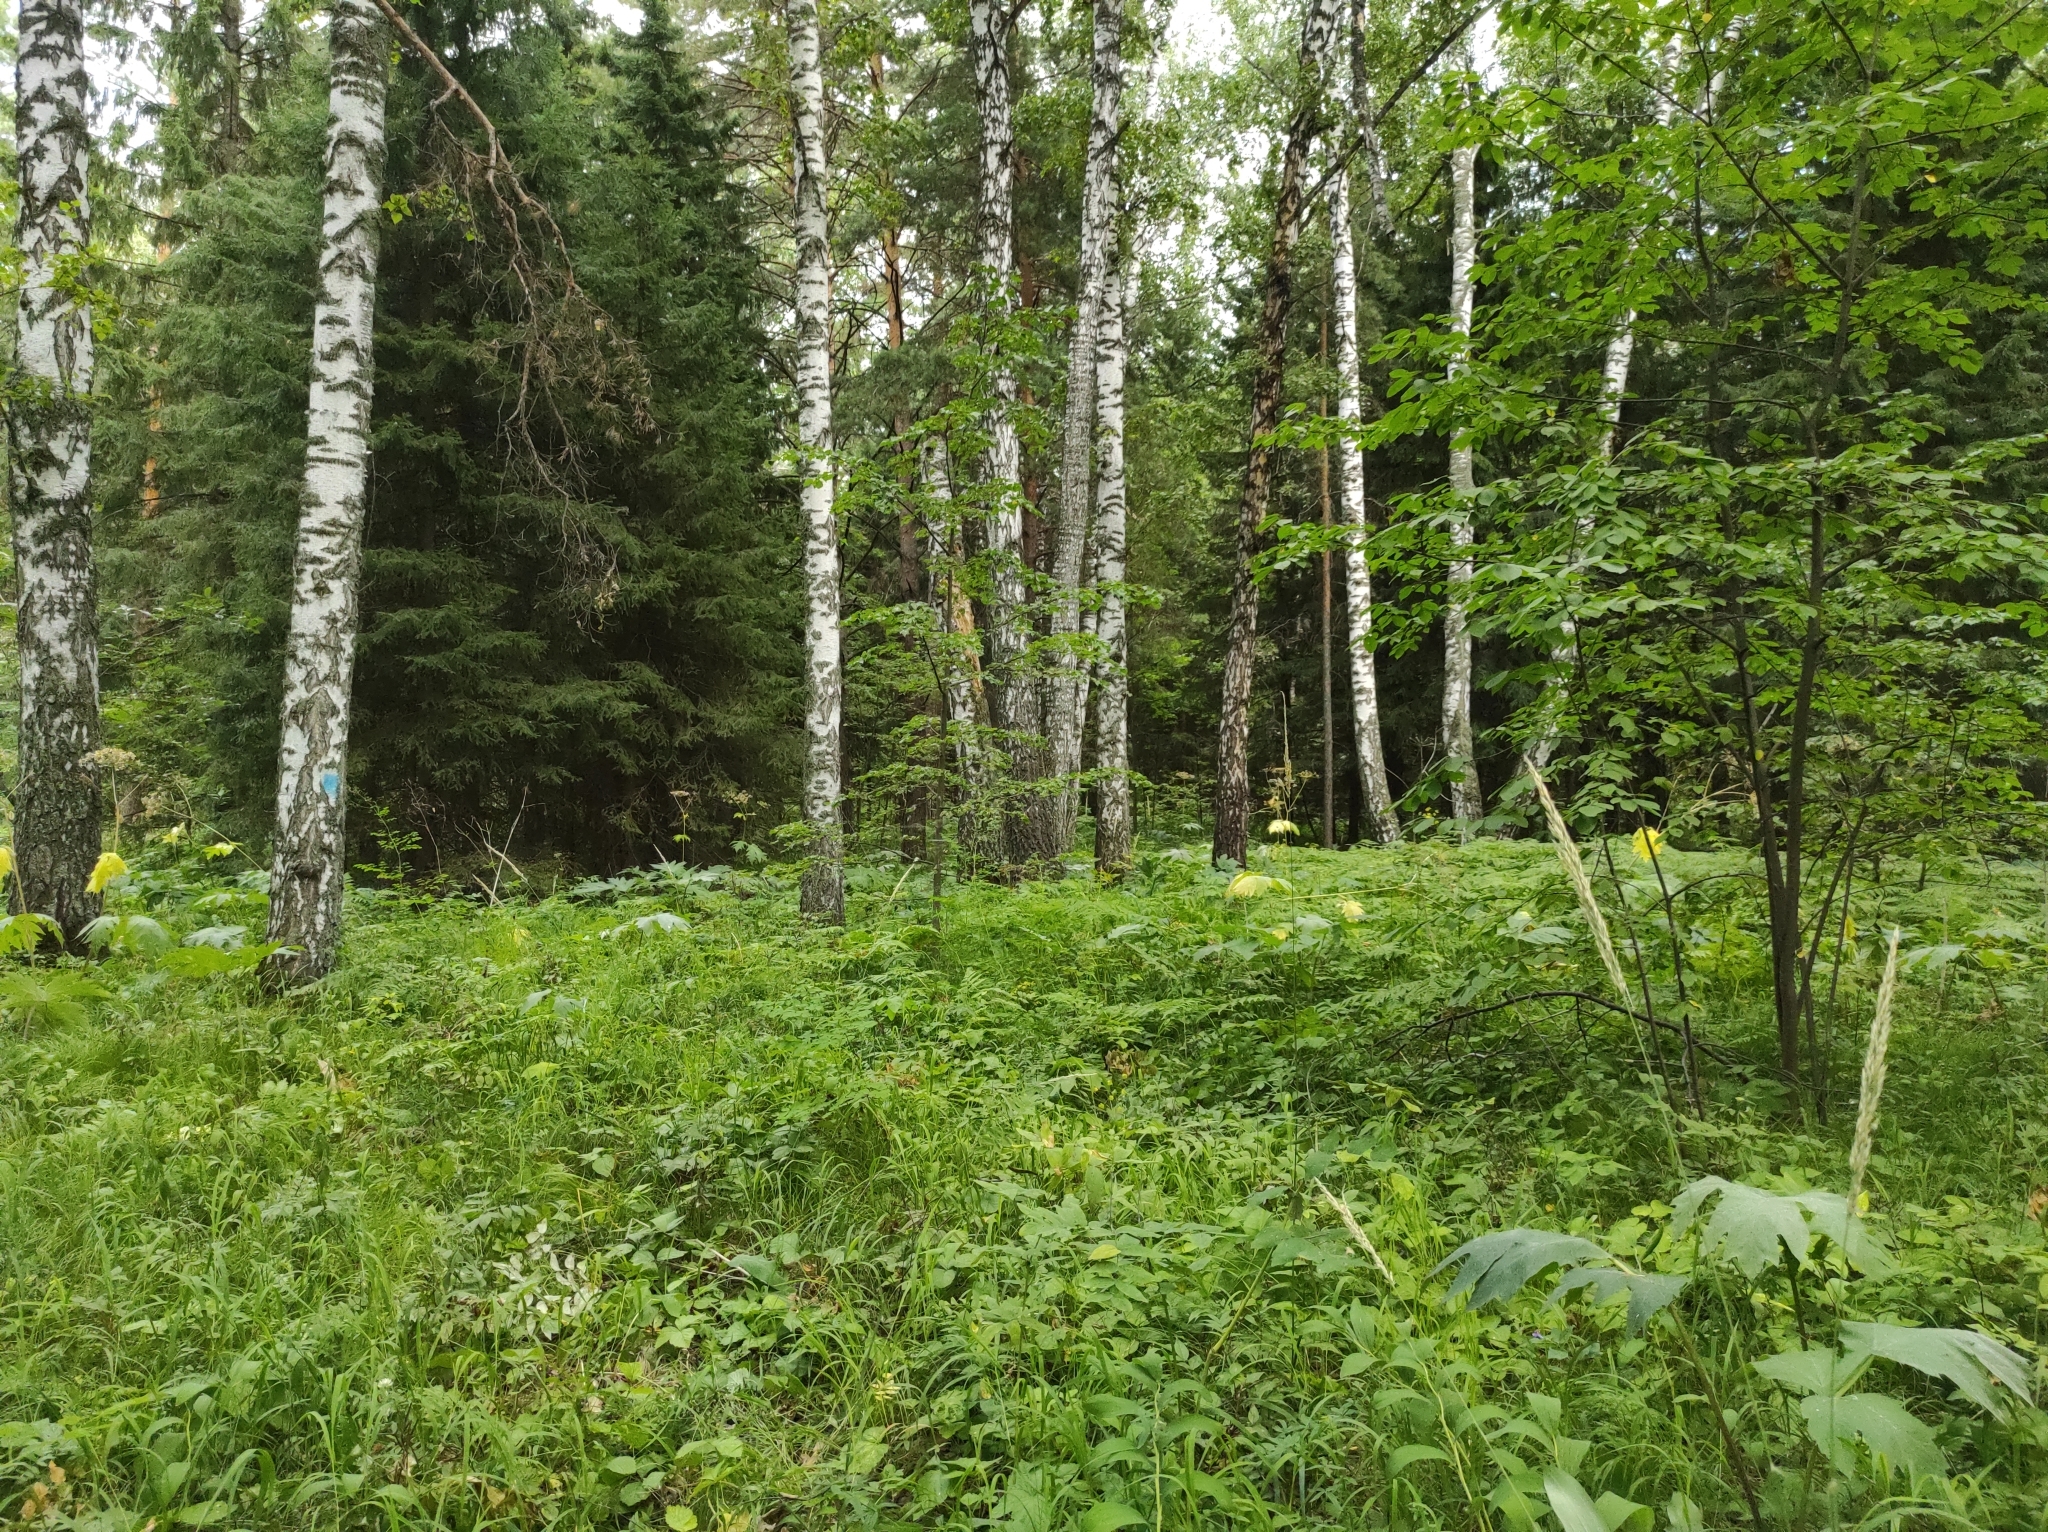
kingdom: Plantae
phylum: Tracheophyta
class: Magnoliopsida
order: Fagales
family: Betulaceae
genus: Betula
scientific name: Betula pendula
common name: Silver birch
